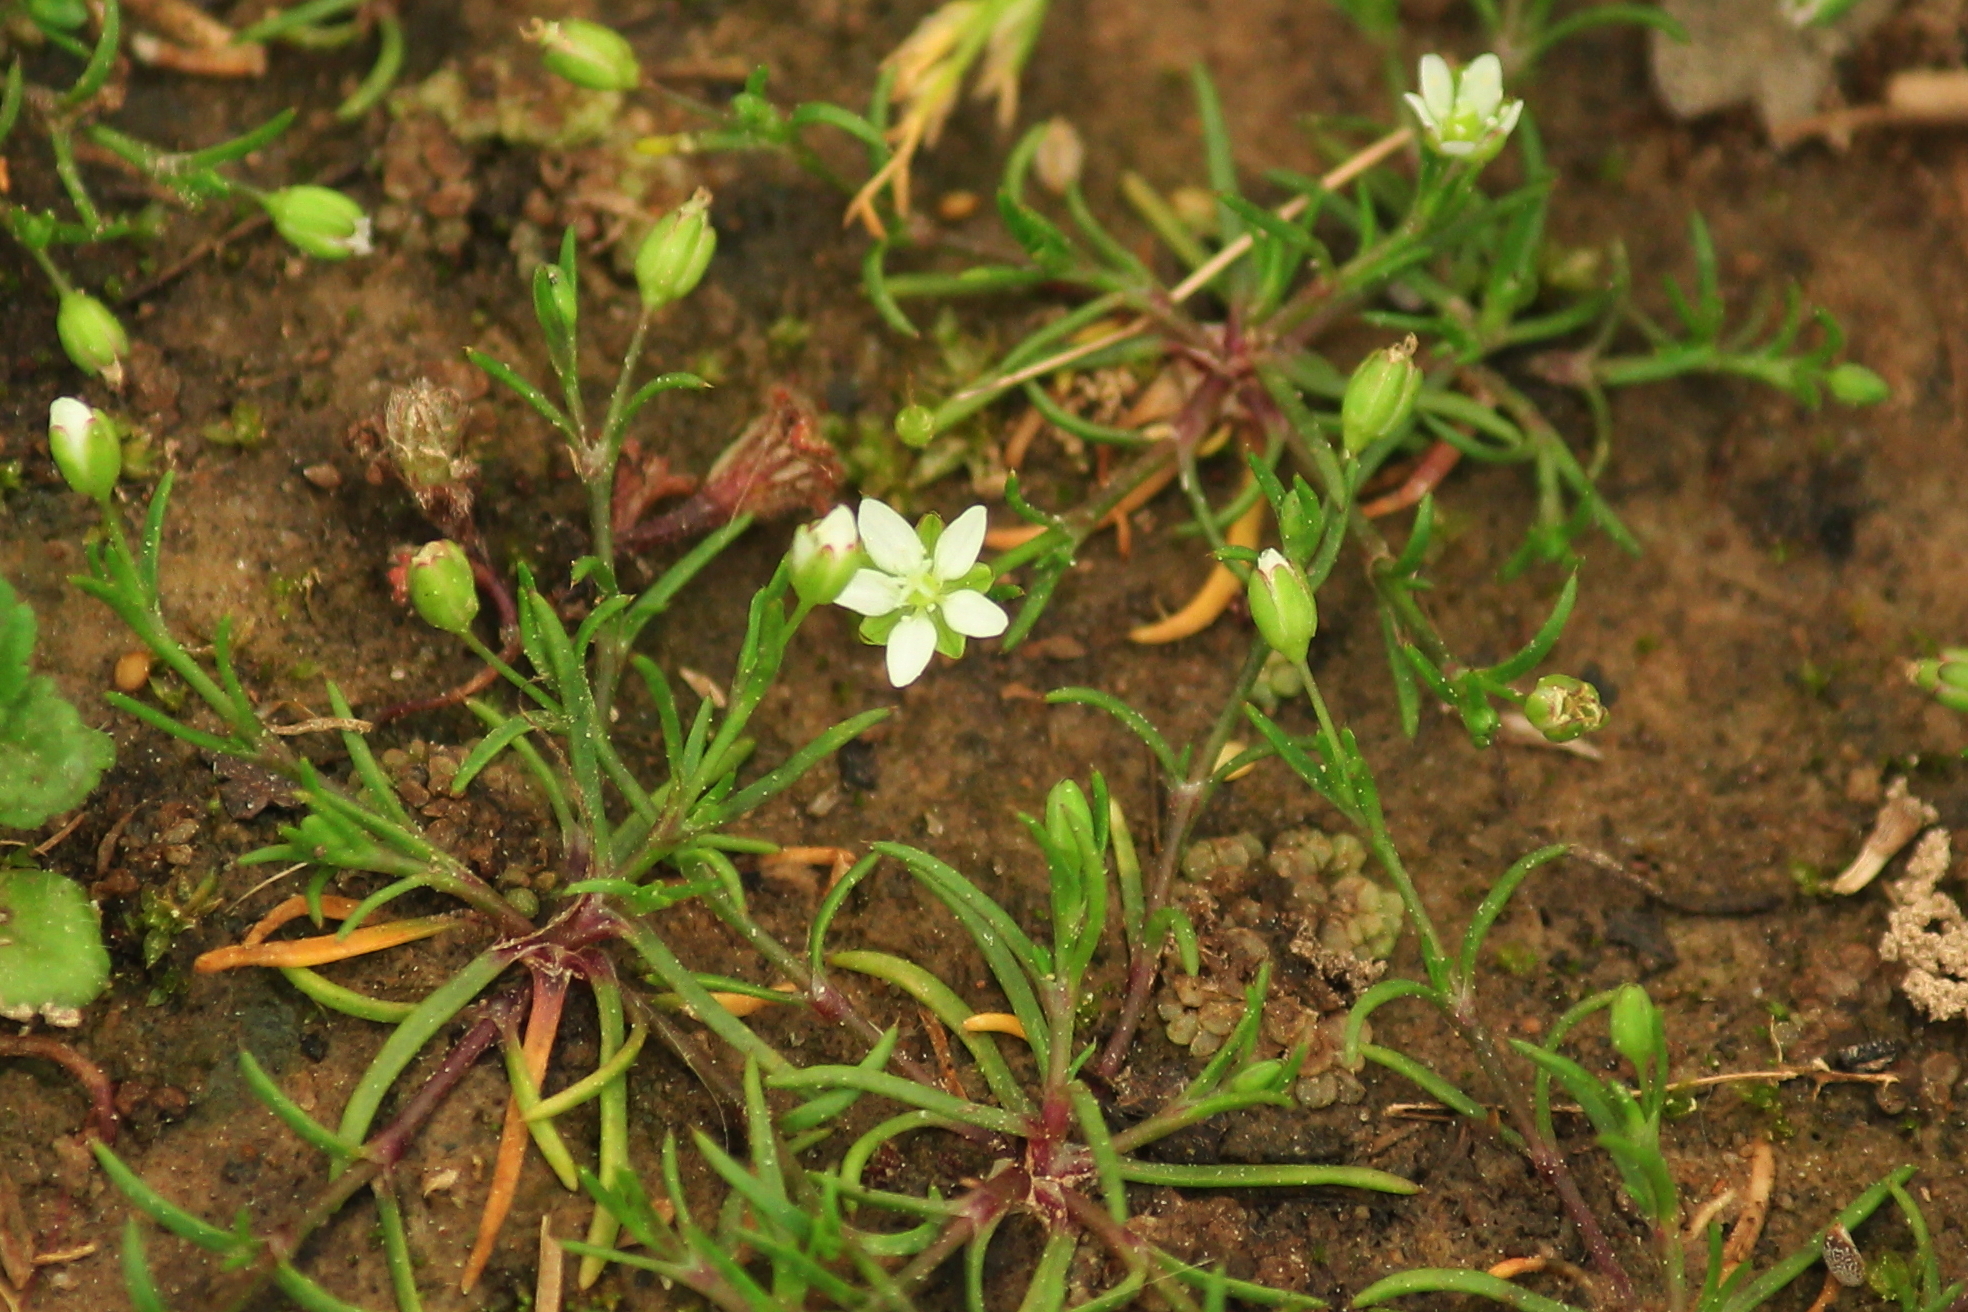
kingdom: Plantae
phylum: Tracheophyta
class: Magnoliopsida
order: Caryophyllales
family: Caryophyllaceae
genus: Sagina
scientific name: Sagina decumbens
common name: Decumbent pearlwort
